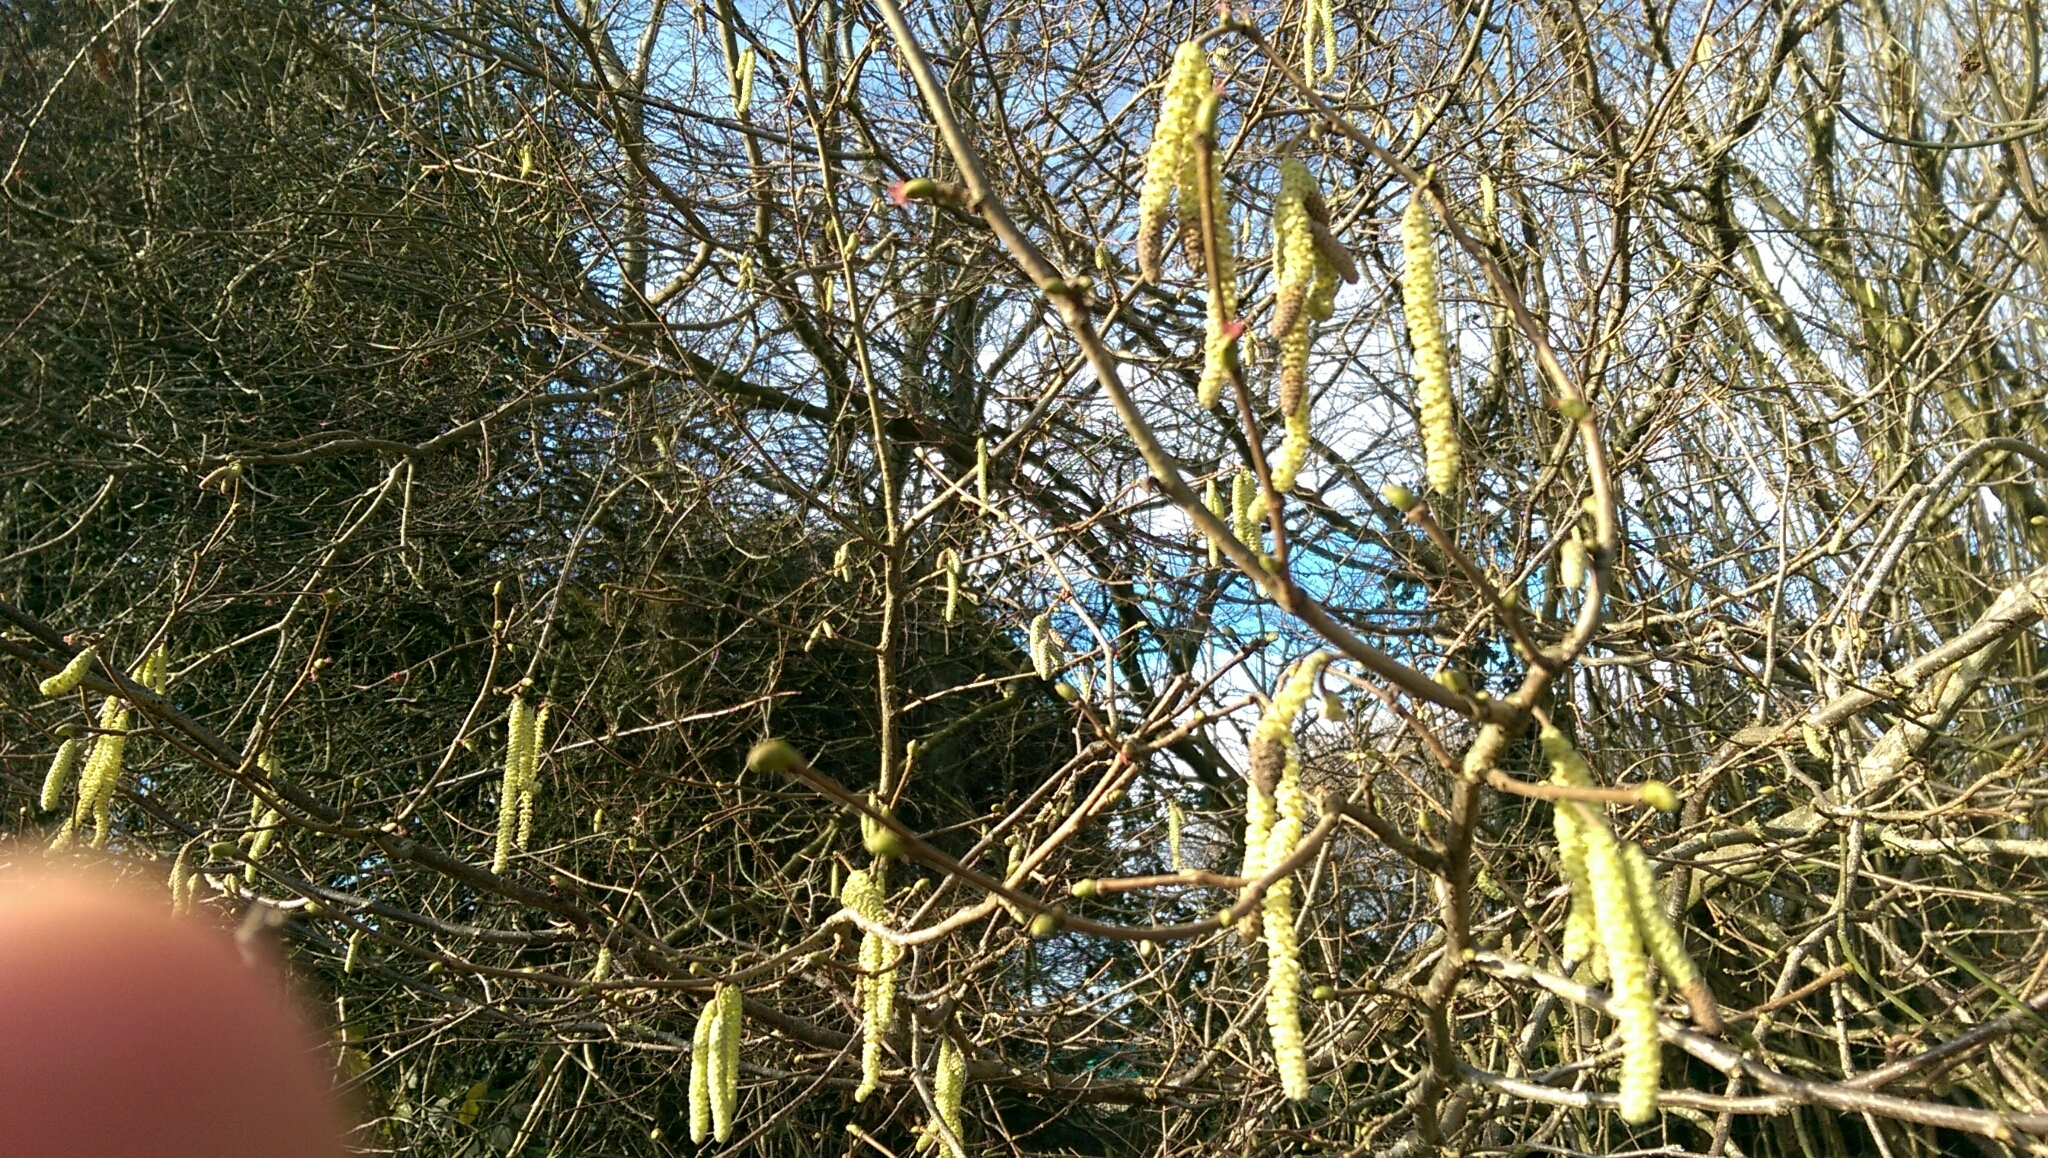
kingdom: Plantae
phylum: Tracheophyta
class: Magnoliopsida
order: Fagales
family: Betulaceae
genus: Corylus
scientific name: Corylus avellana
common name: European hazel
